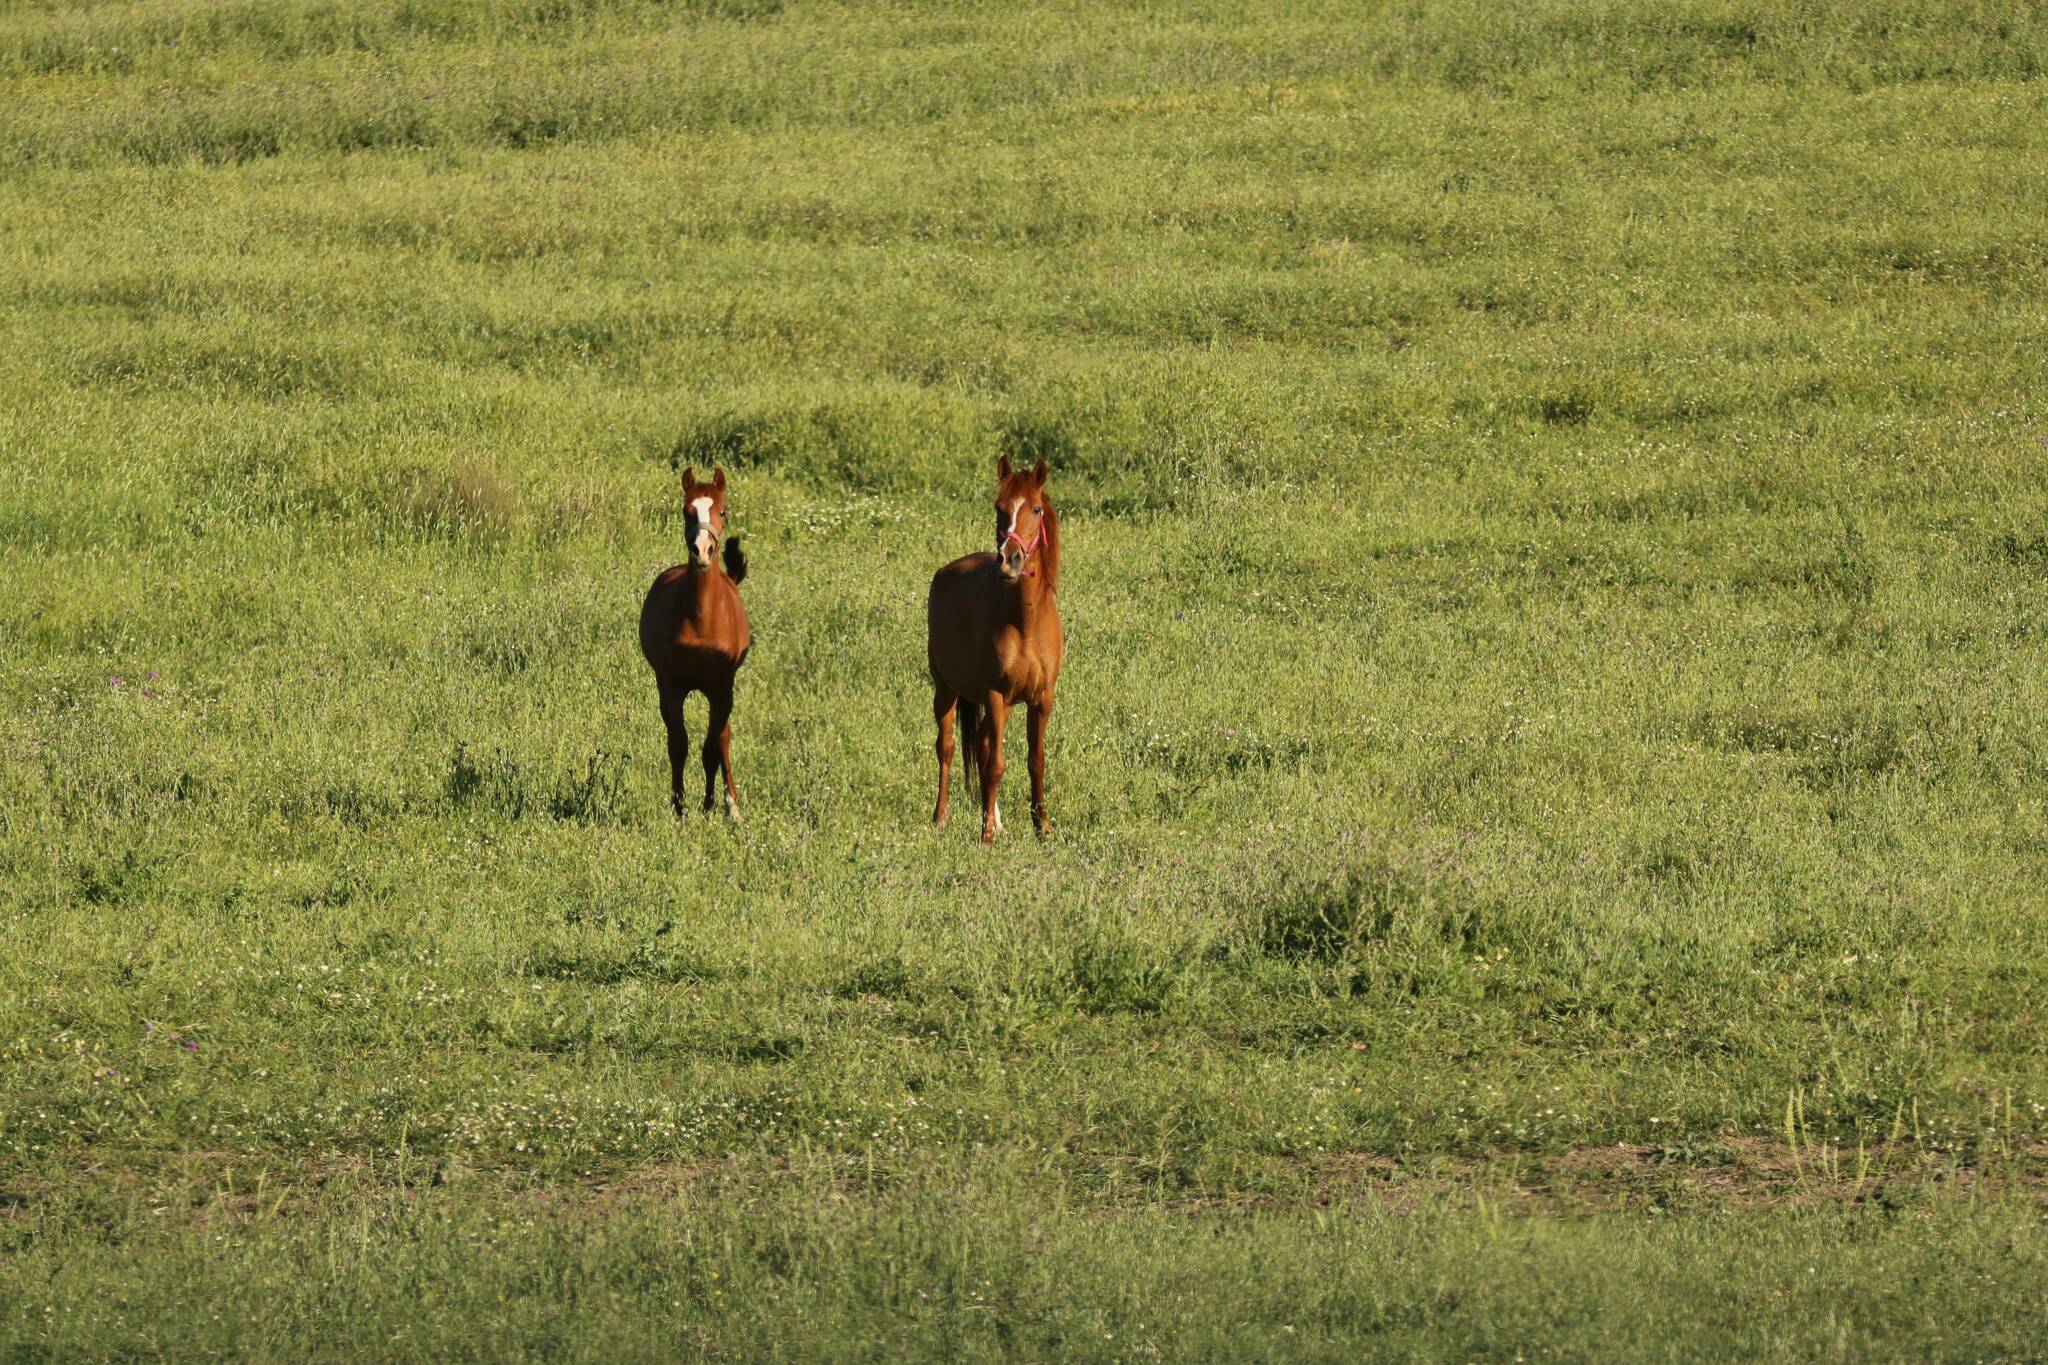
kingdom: Animalia
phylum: Chordata
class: Mammalia
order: Perissodactyla
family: Equidae
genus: Equus
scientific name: Equus caballus
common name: Horse
